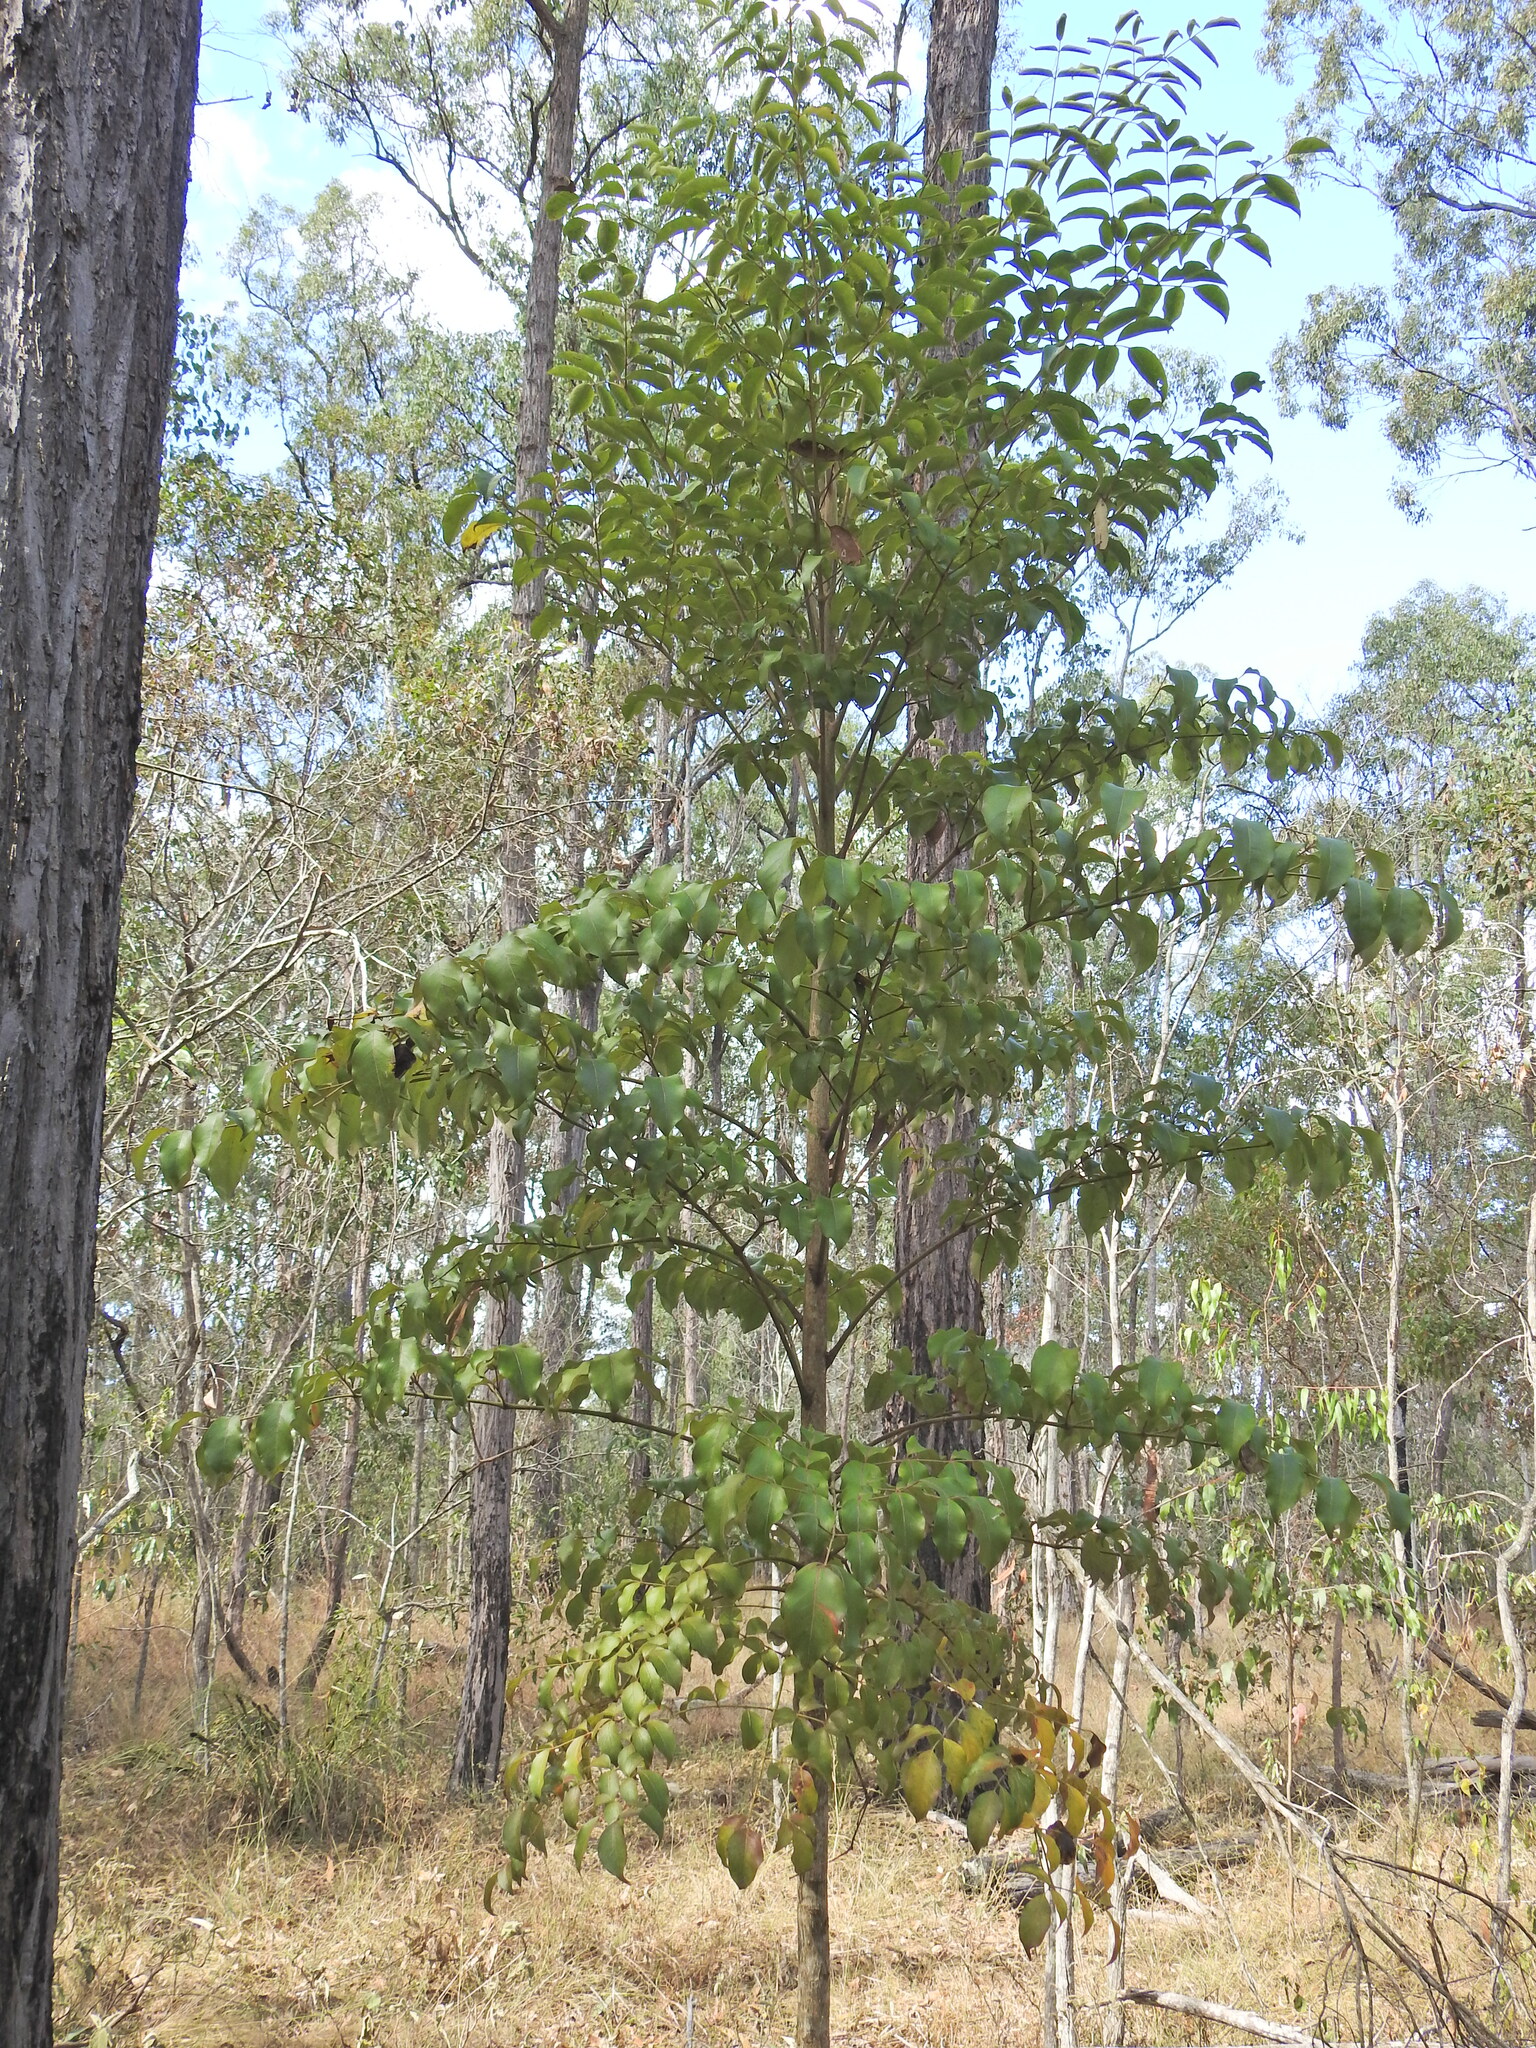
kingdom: Plantae
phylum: Tracheophyta
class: Magnoliopsida
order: Apiales
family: Araliaceae
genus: Polyscias
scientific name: Polyscias elegans
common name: Mowbulan whitewood
